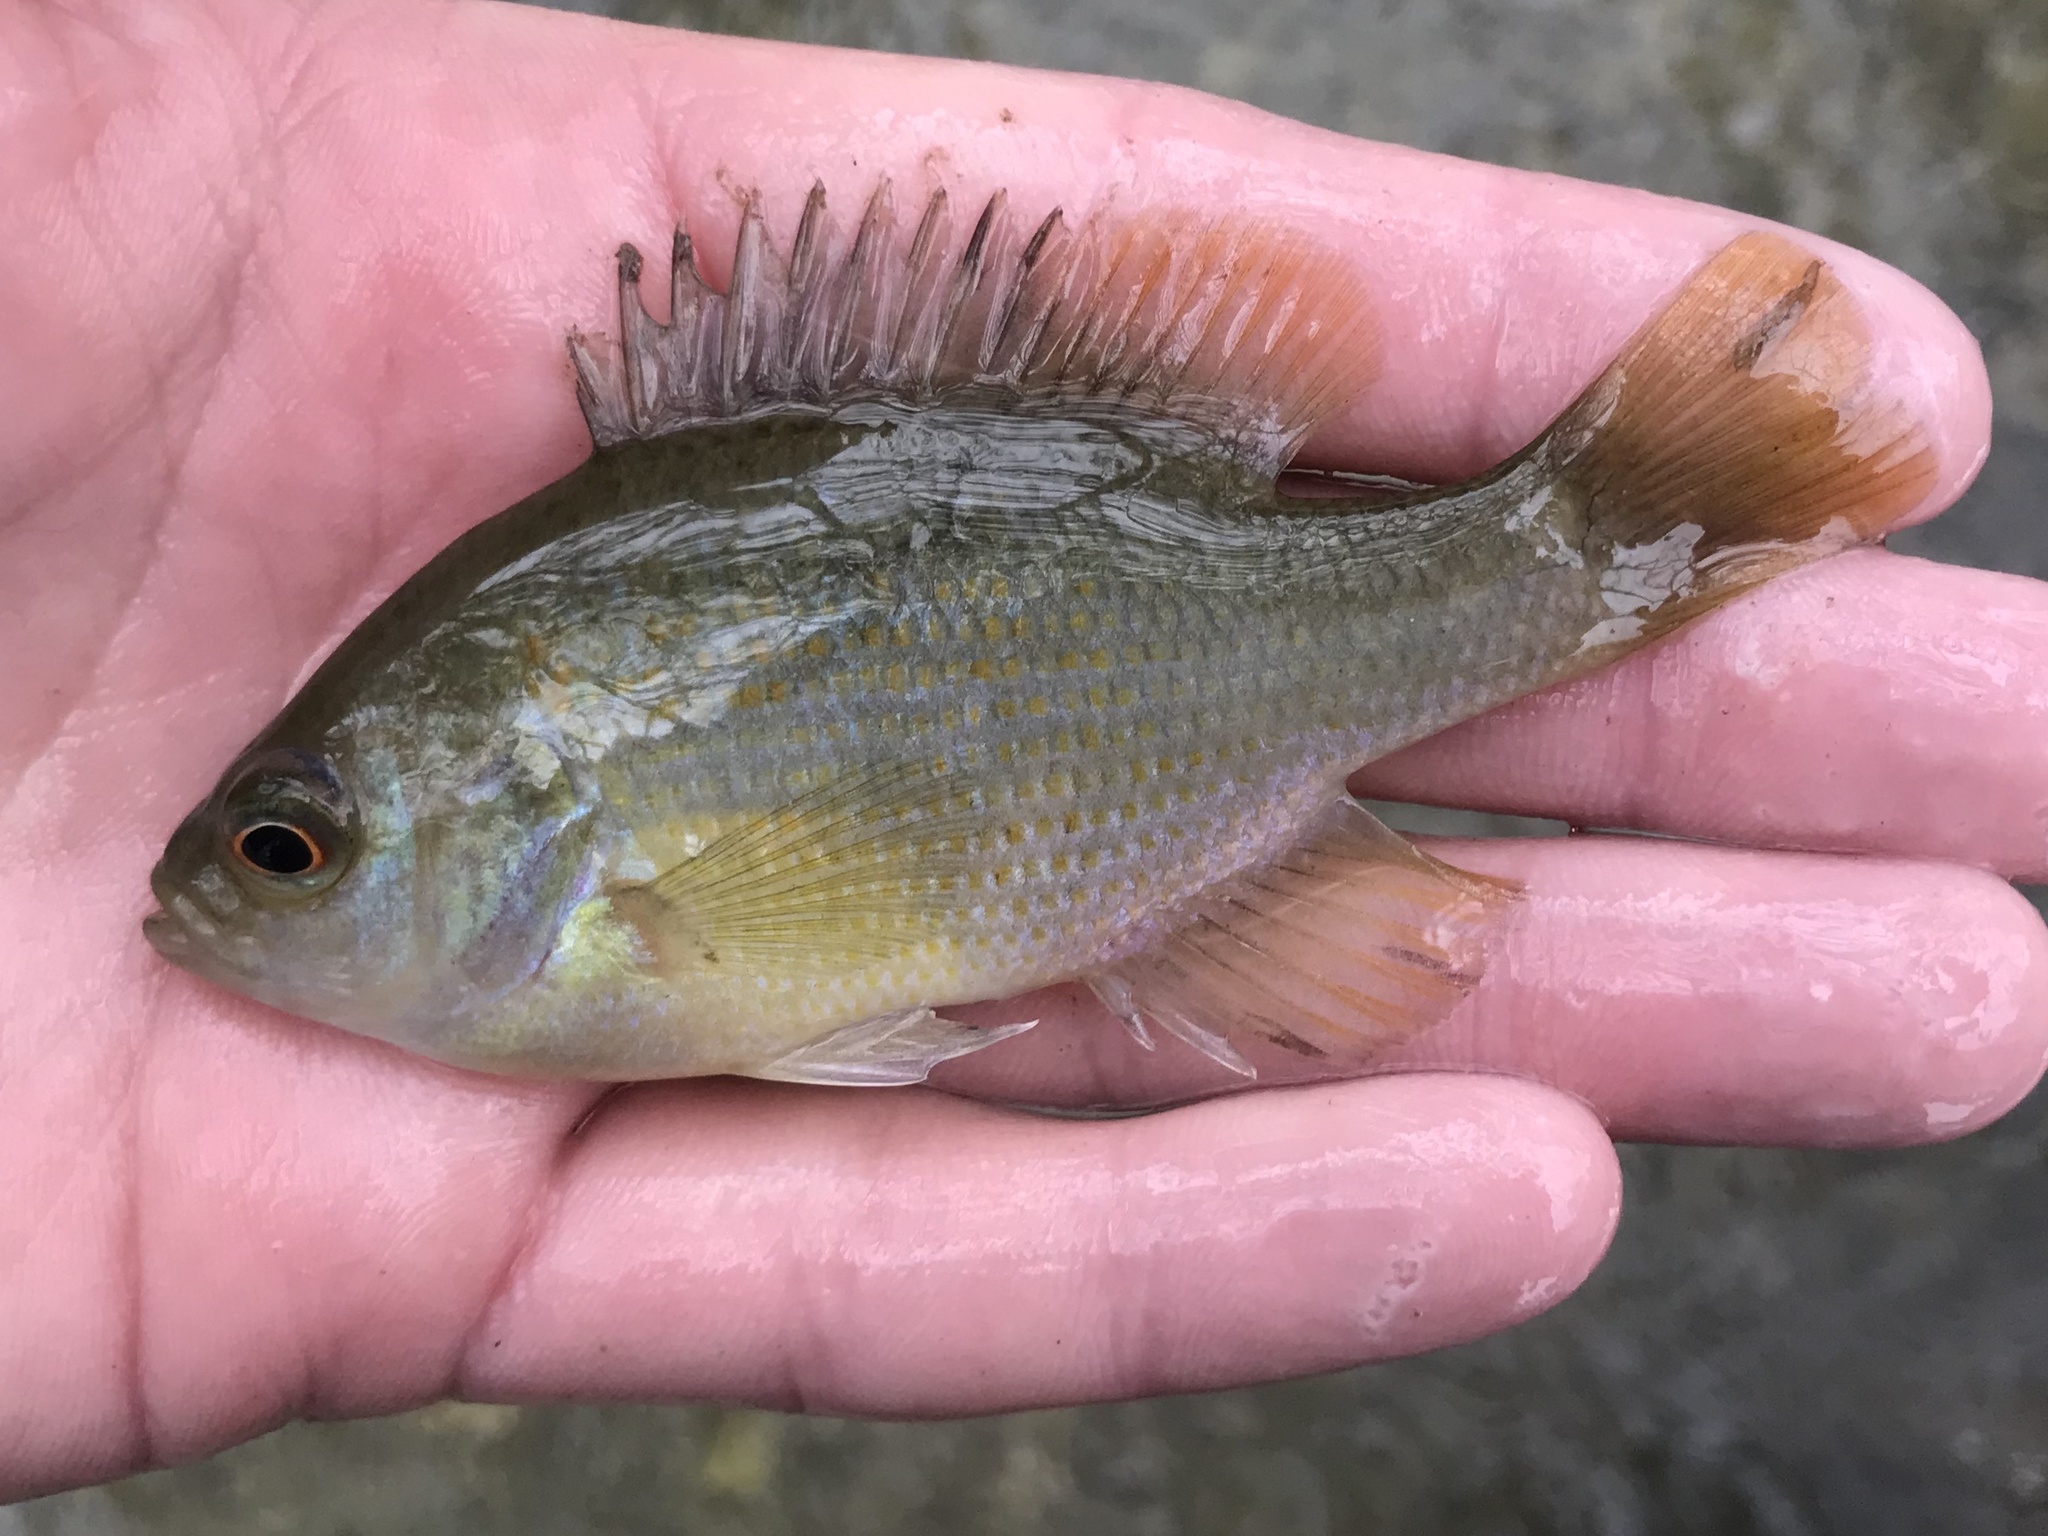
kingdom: Animalia
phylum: Chordata
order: Perciformes
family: Centrarchidae
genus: Lepomis
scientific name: Lepomis miniatus
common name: Redspotted sunfish
